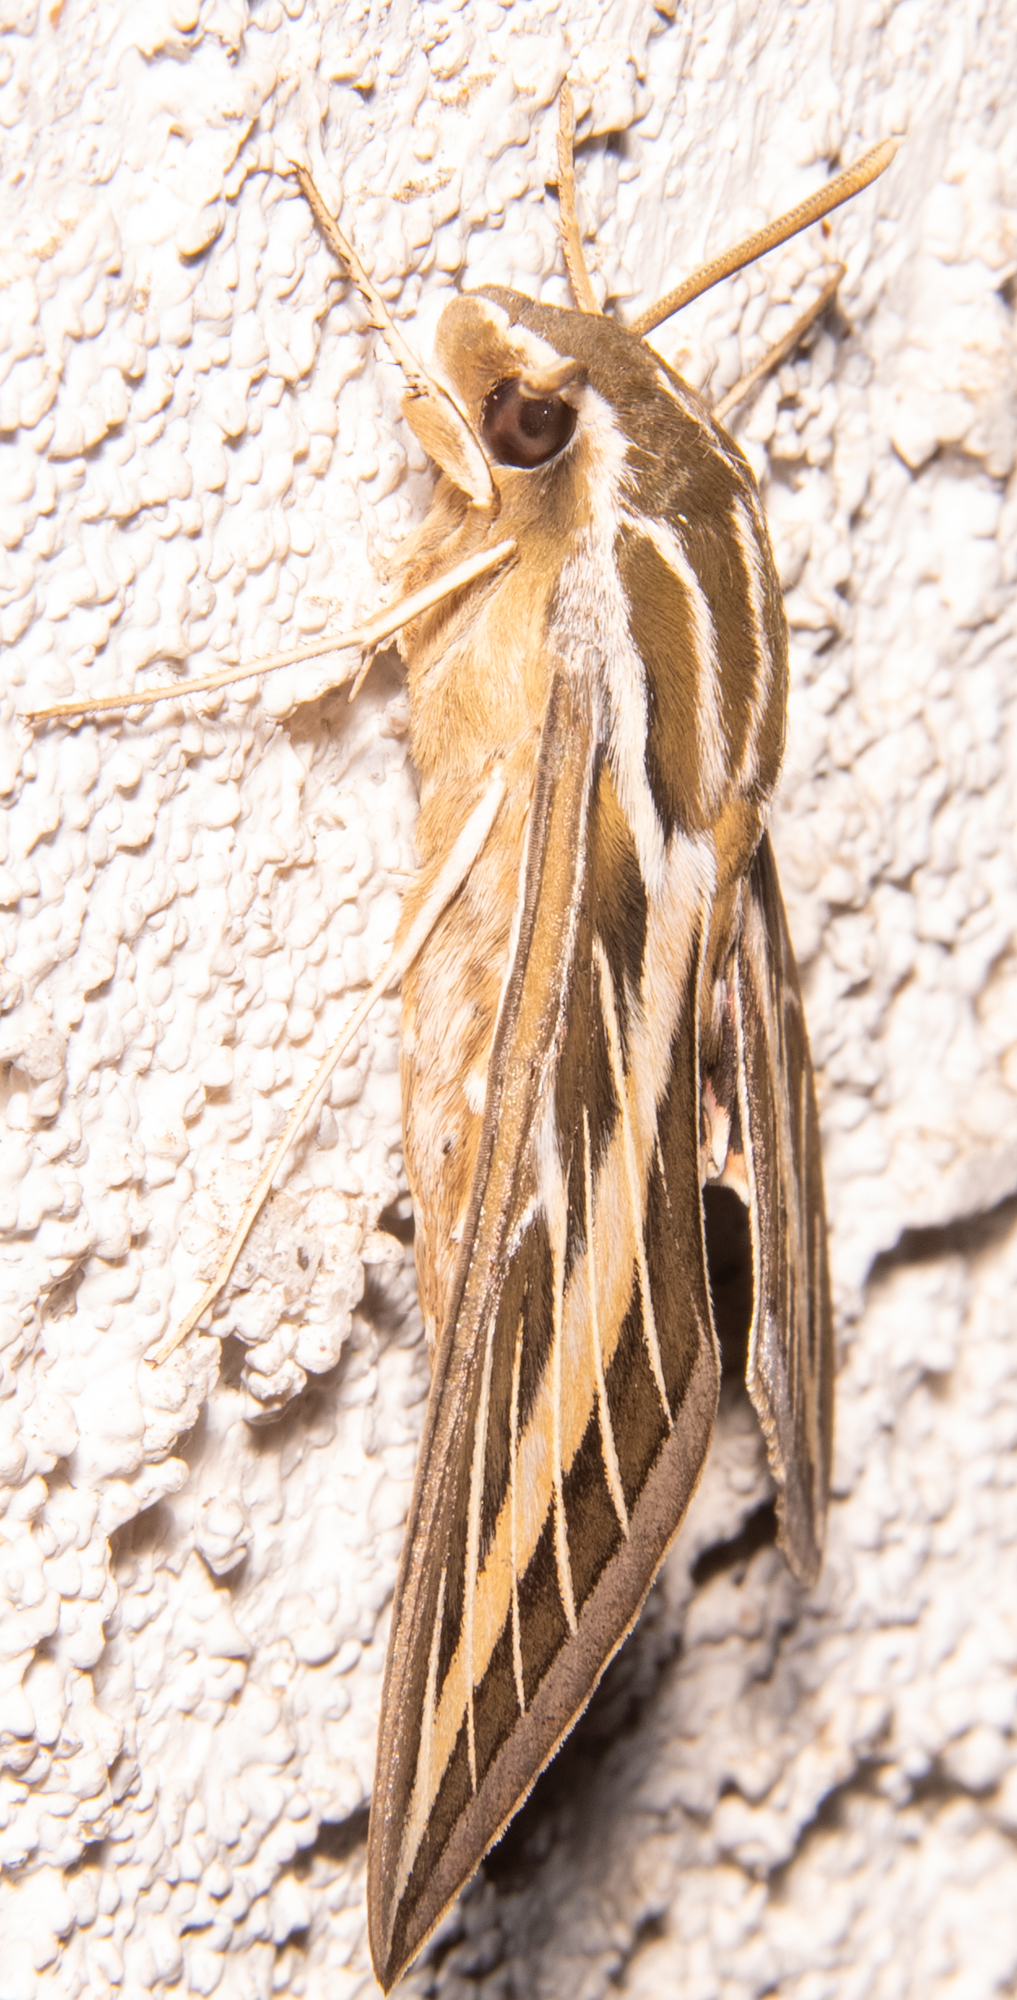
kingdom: Animalia
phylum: Arthropoda
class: Insecta
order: Lepidoptera
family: Sphingidae
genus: Hyles
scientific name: Hyles lineata
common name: White-lined sphinx
